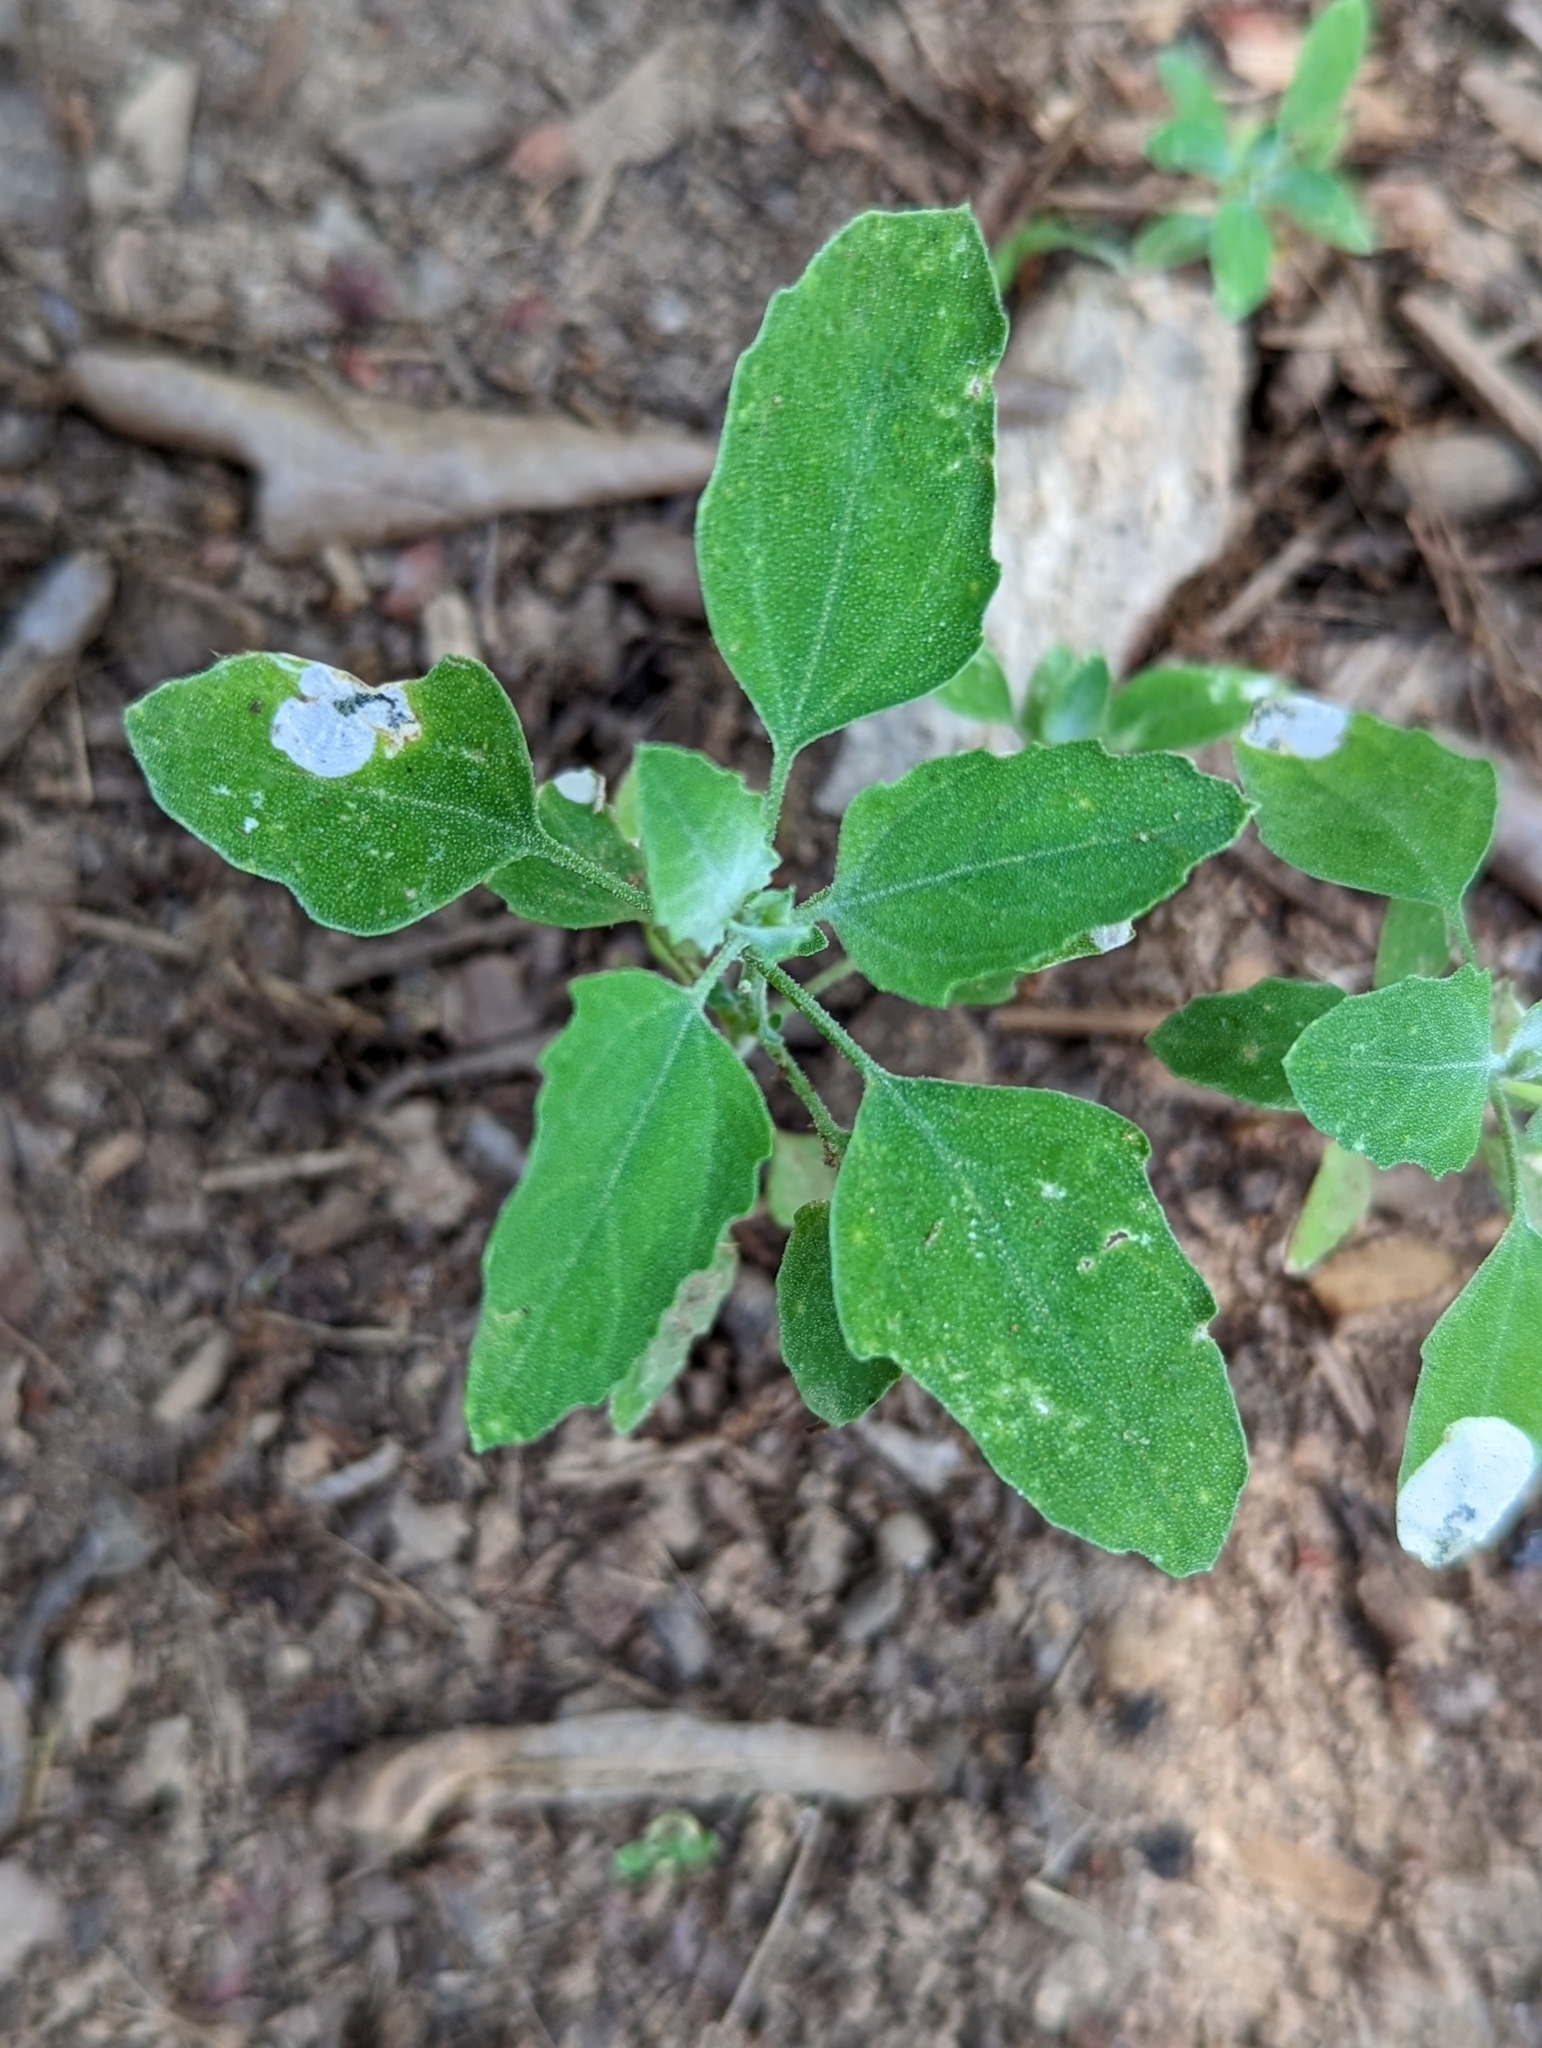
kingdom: Plantae
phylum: Tracheophyta
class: Magnoliopsida
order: Caryophyllales
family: Amaranthaceae
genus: Chenopodium
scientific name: Chenopodium album
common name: Fat-hen
